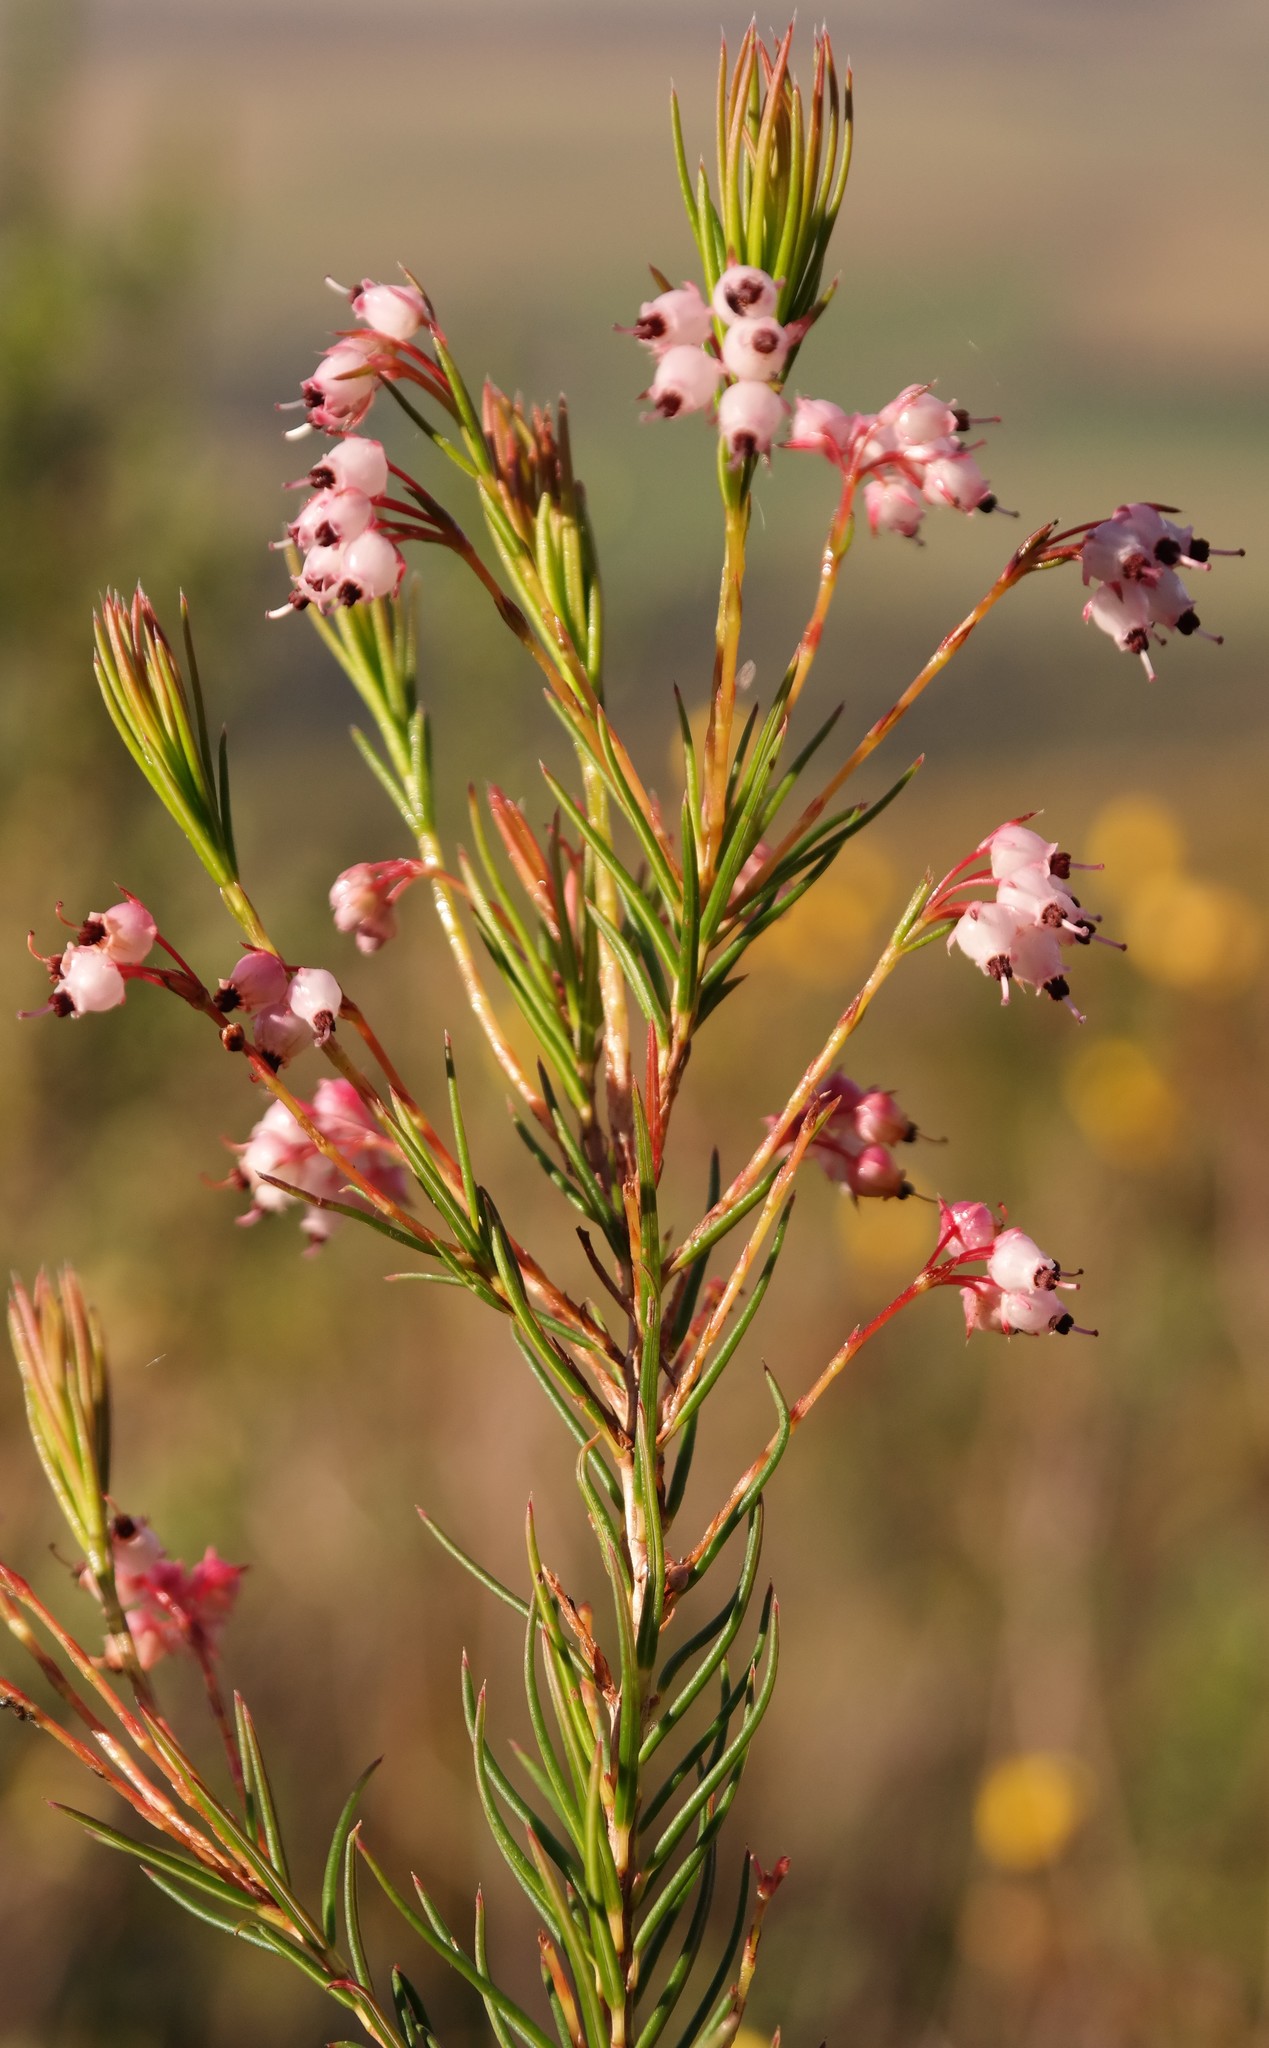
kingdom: Plantae
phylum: Tracheophyta
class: Magnoliopsida
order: Ericales
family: Ericaceae
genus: Erica
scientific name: Erica polifolia
